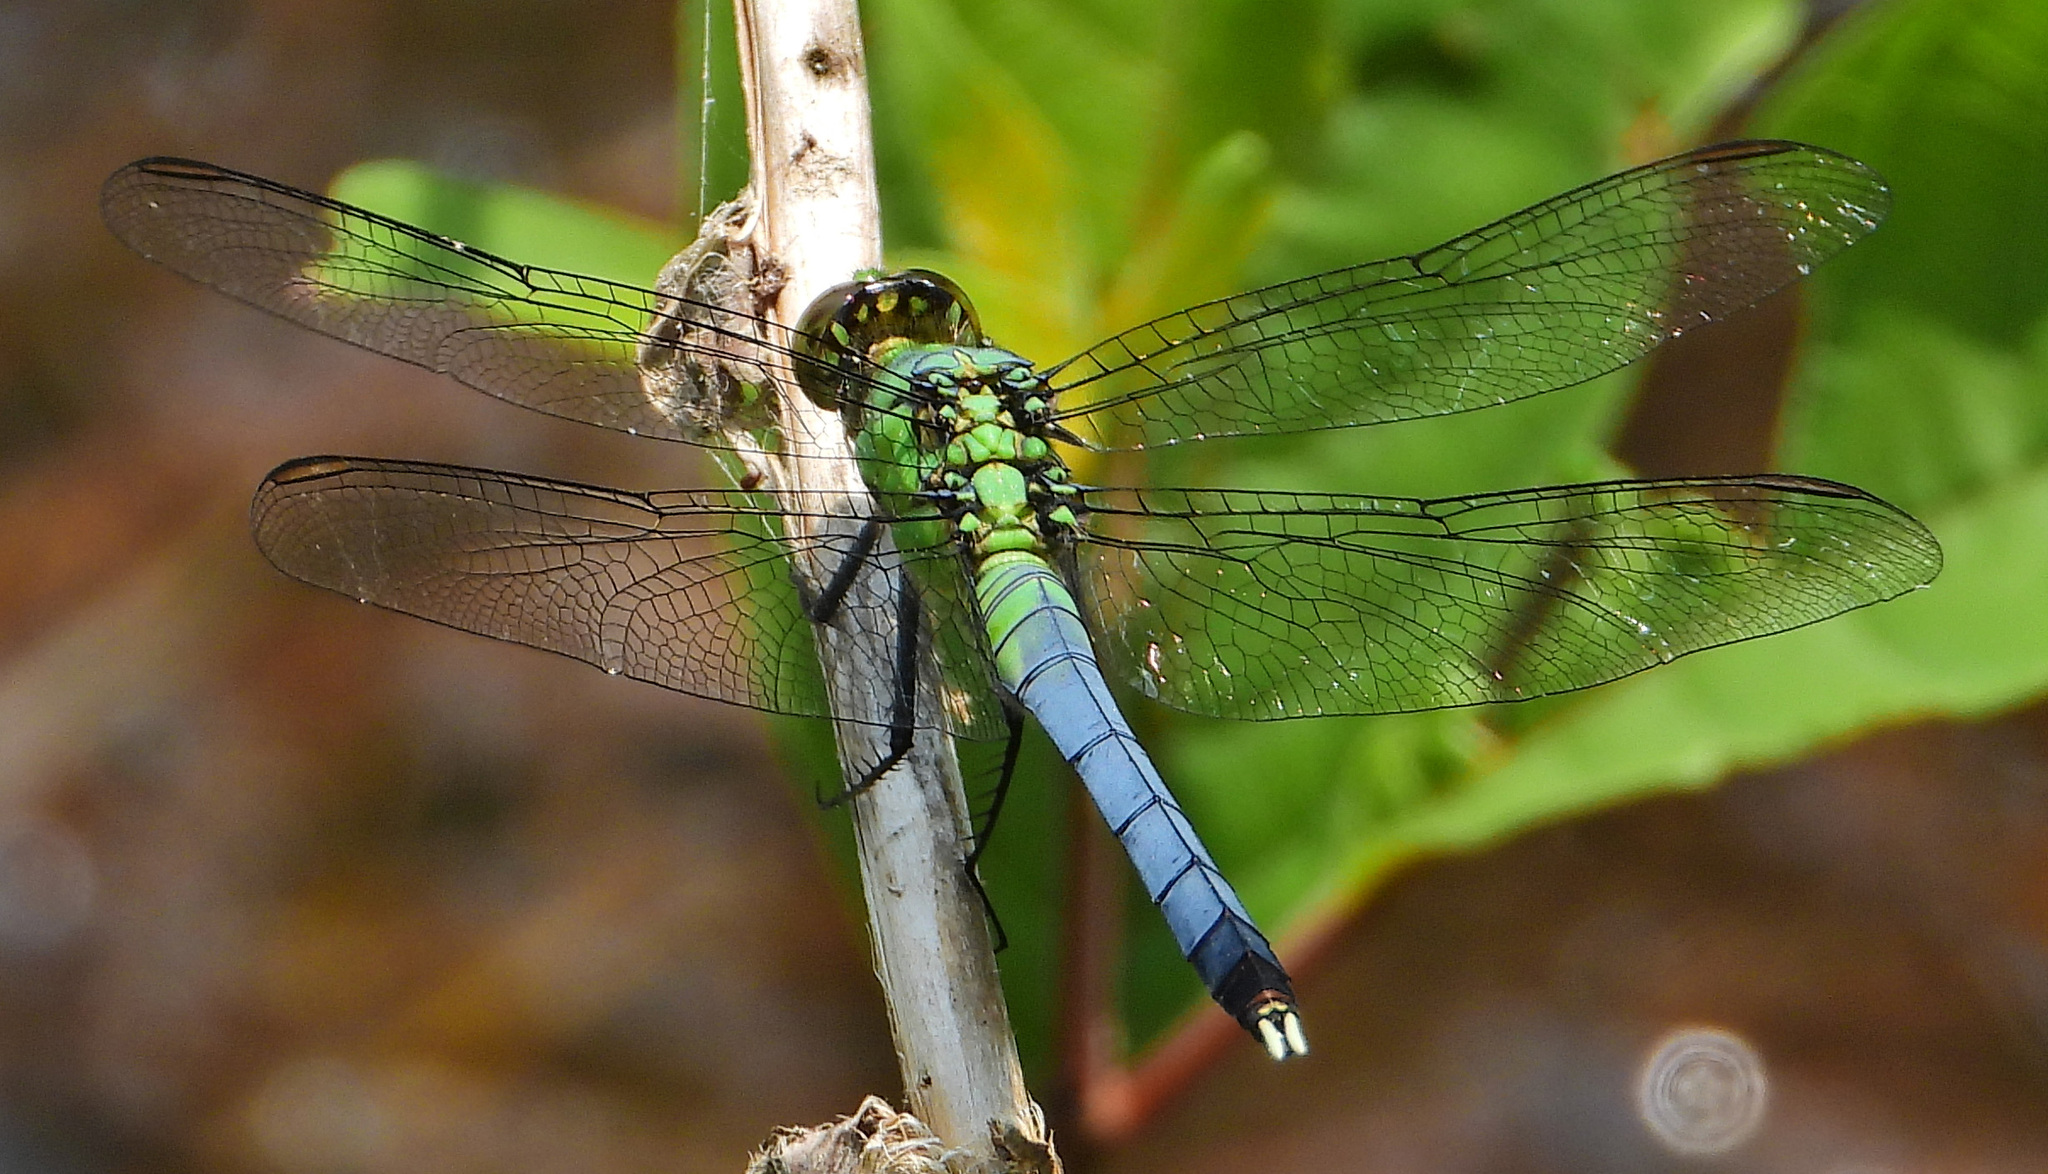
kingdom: Animalia
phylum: Arthropoda
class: Insecta
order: Odonata
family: Libellulidae
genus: Erythemis
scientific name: Erythemis simplicicollis
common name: Eastern pondhawk
